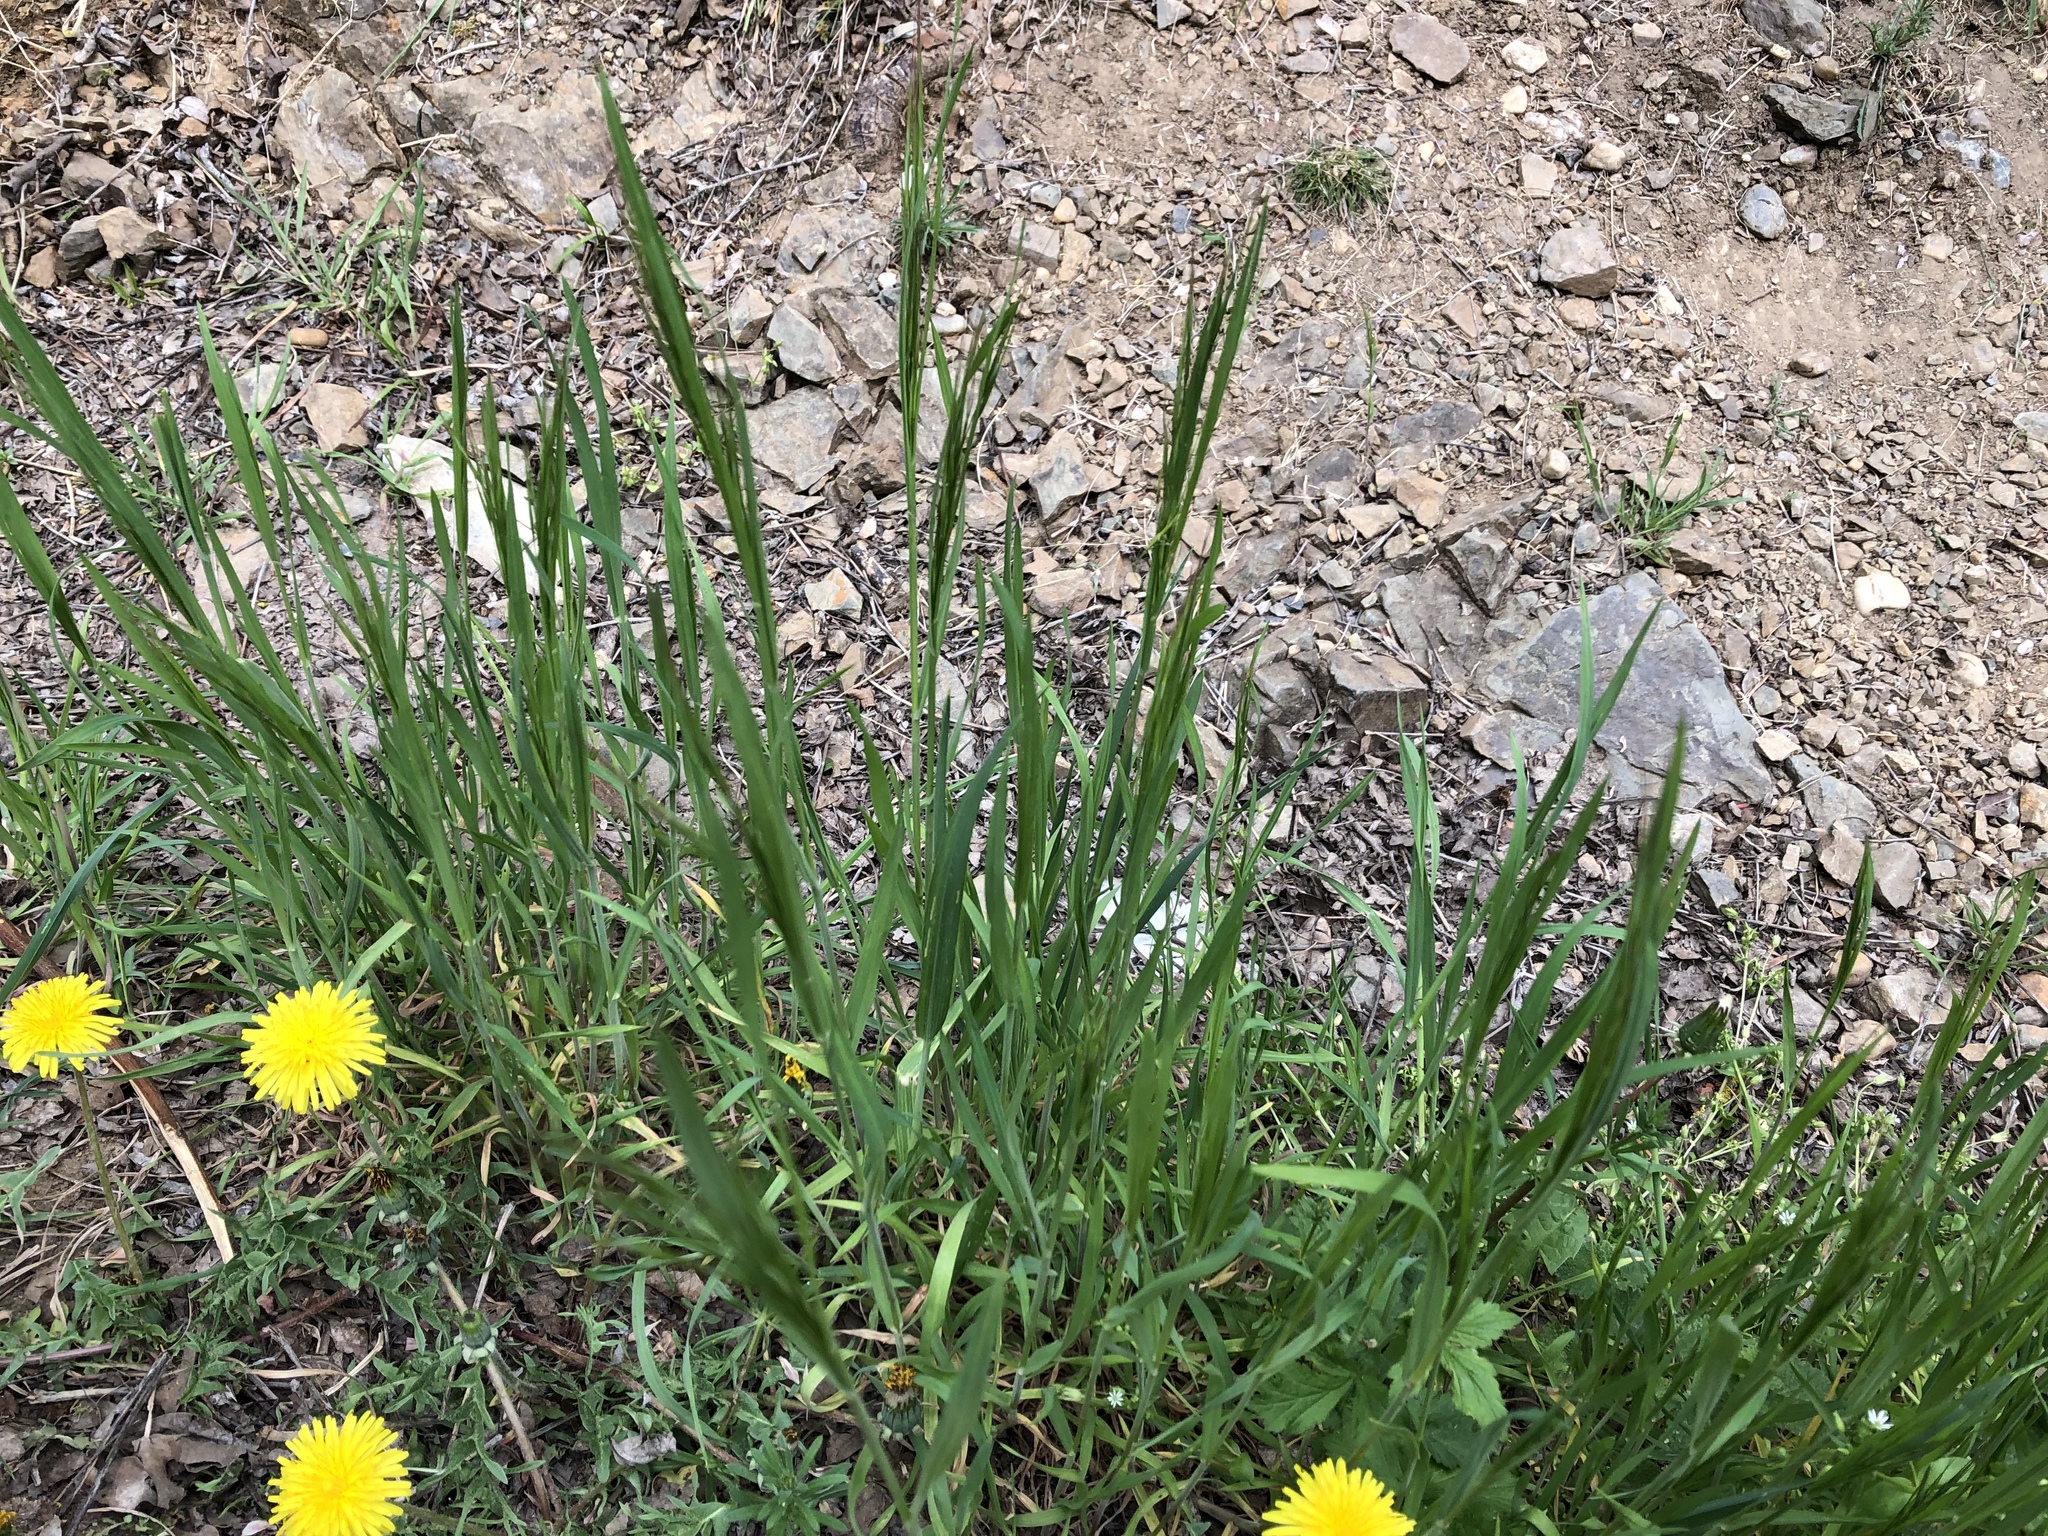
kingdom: Plantae
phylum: Tracheophyta
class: Liliopsida
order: Poales
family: Poaceae
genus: Bromus
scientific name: Bromus sterilis
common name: Poverty brome
